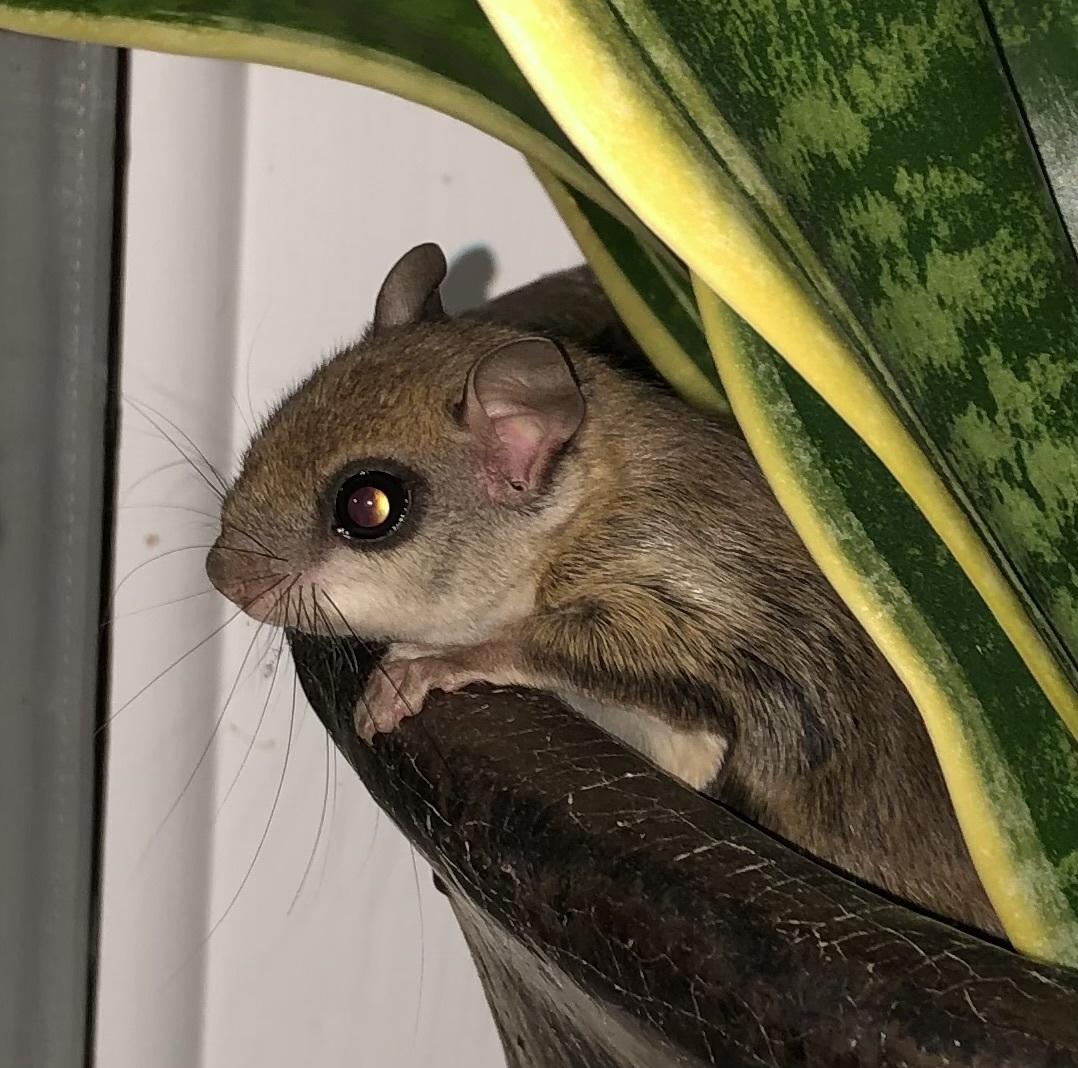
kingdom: Animalia
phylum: Chordata
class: Mammalia
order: Rodentia
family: Sciuridae
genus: Glaucomys
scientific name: Glaucomys volans
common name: Southern flying squirrel
